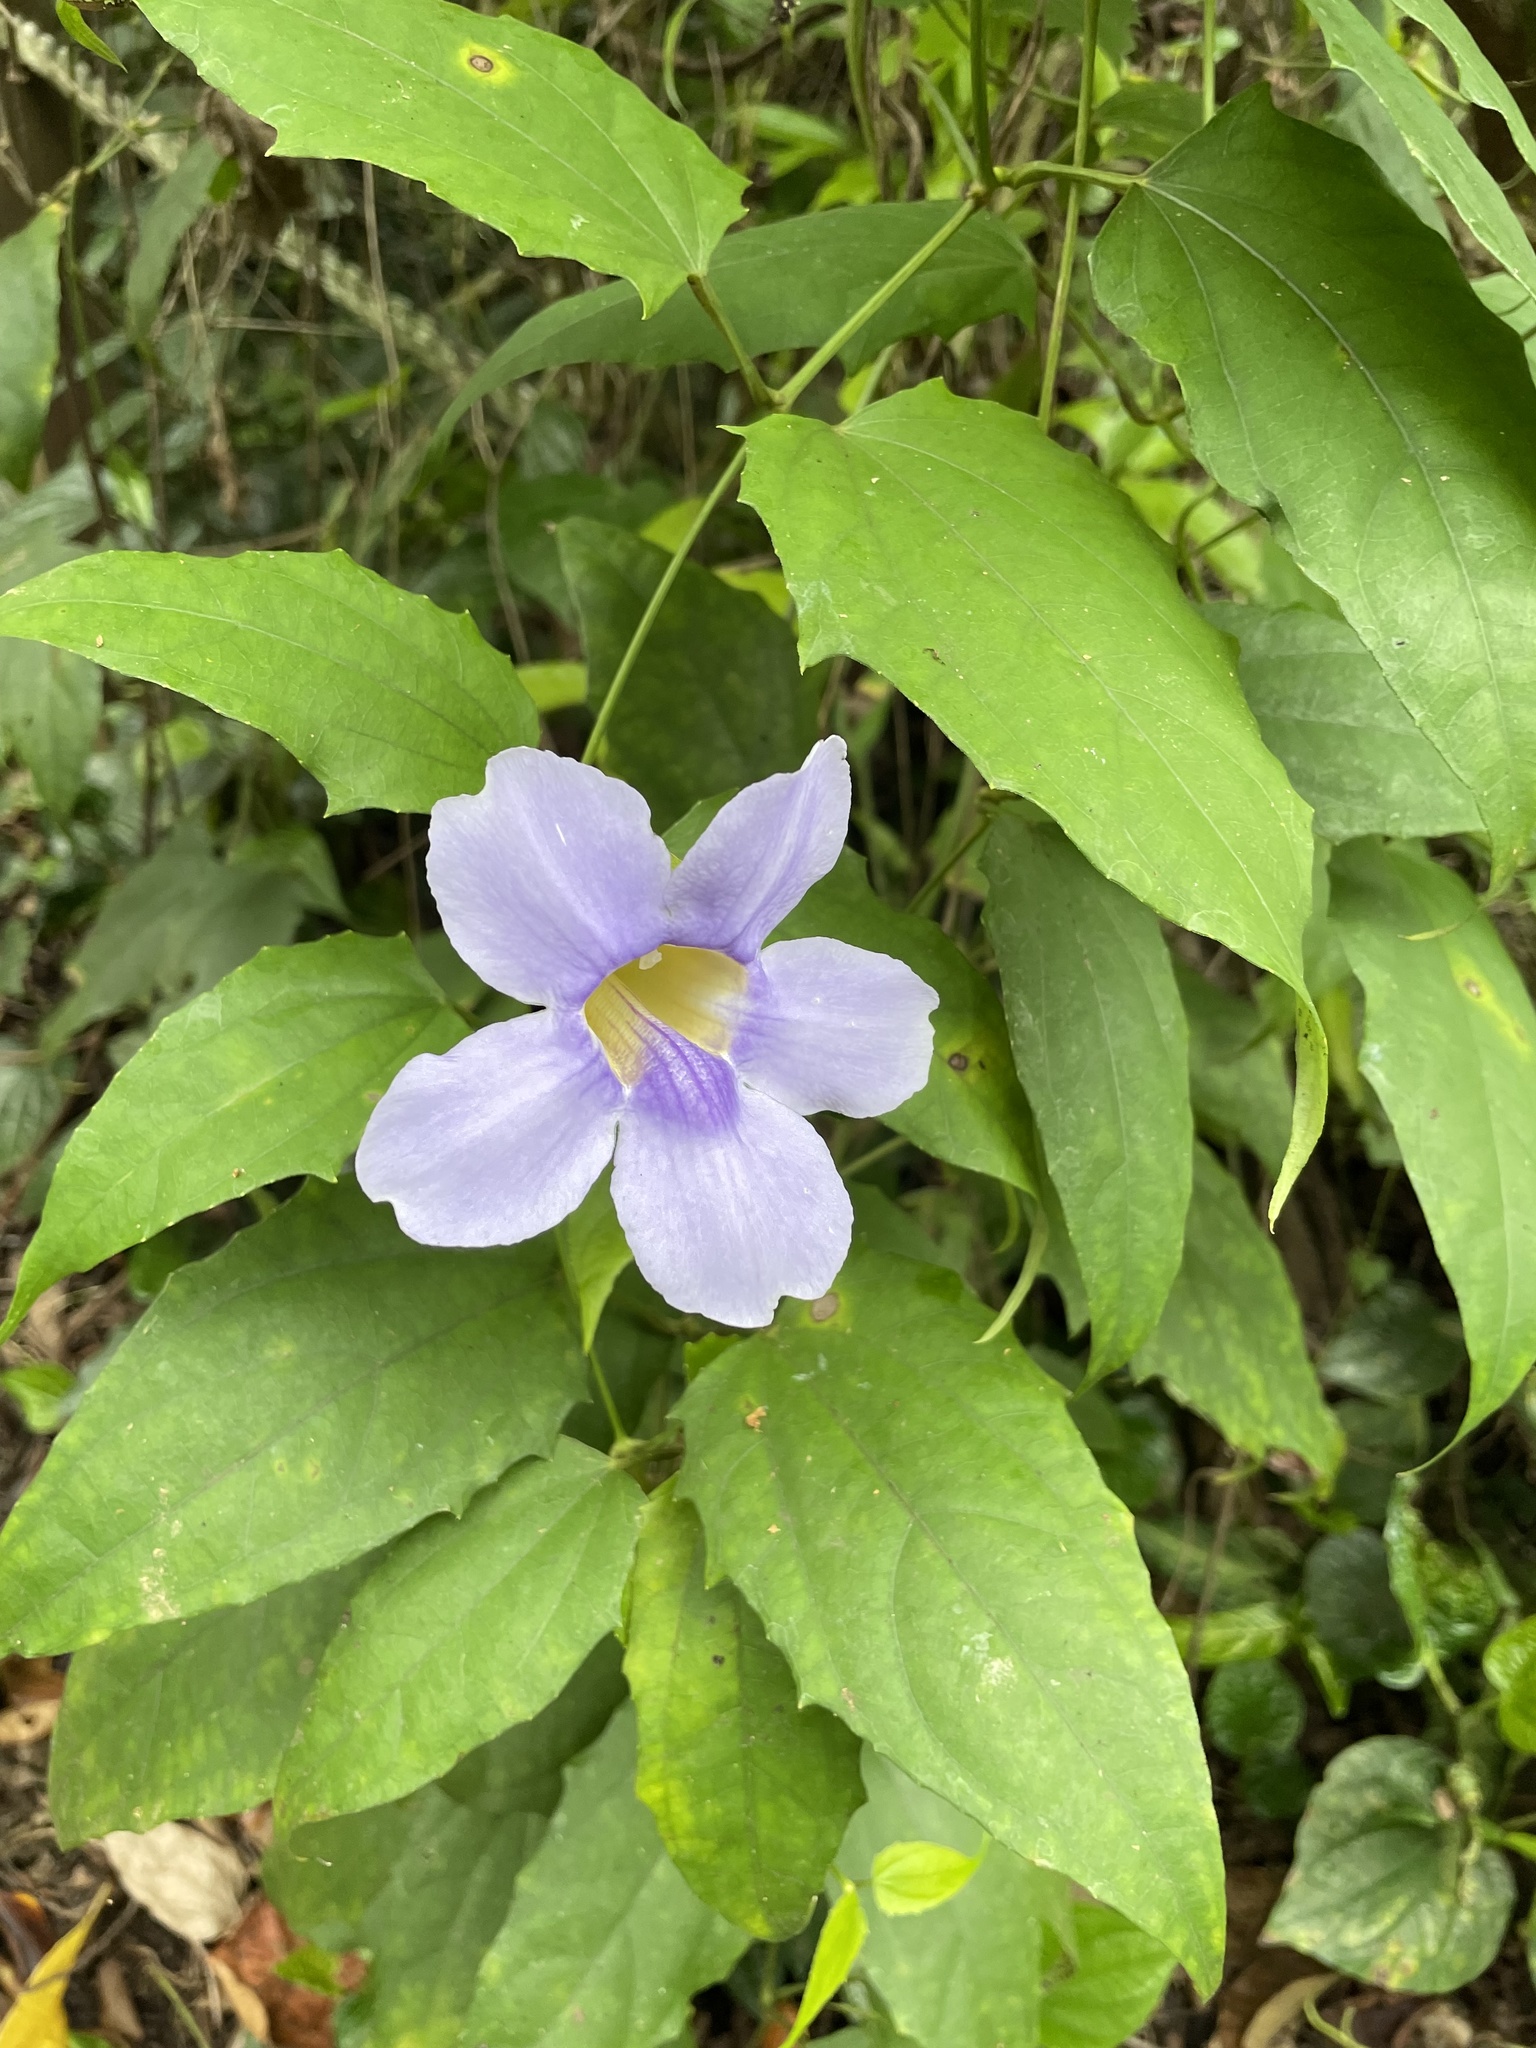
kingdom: Plantae
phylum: Tracheophyta
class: Magnoliopsida
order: Lamiales
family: Acanthaceae
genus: Thunbergia
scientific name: Thunbergia laurifolia
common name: Laurel-leaved thunbergia
